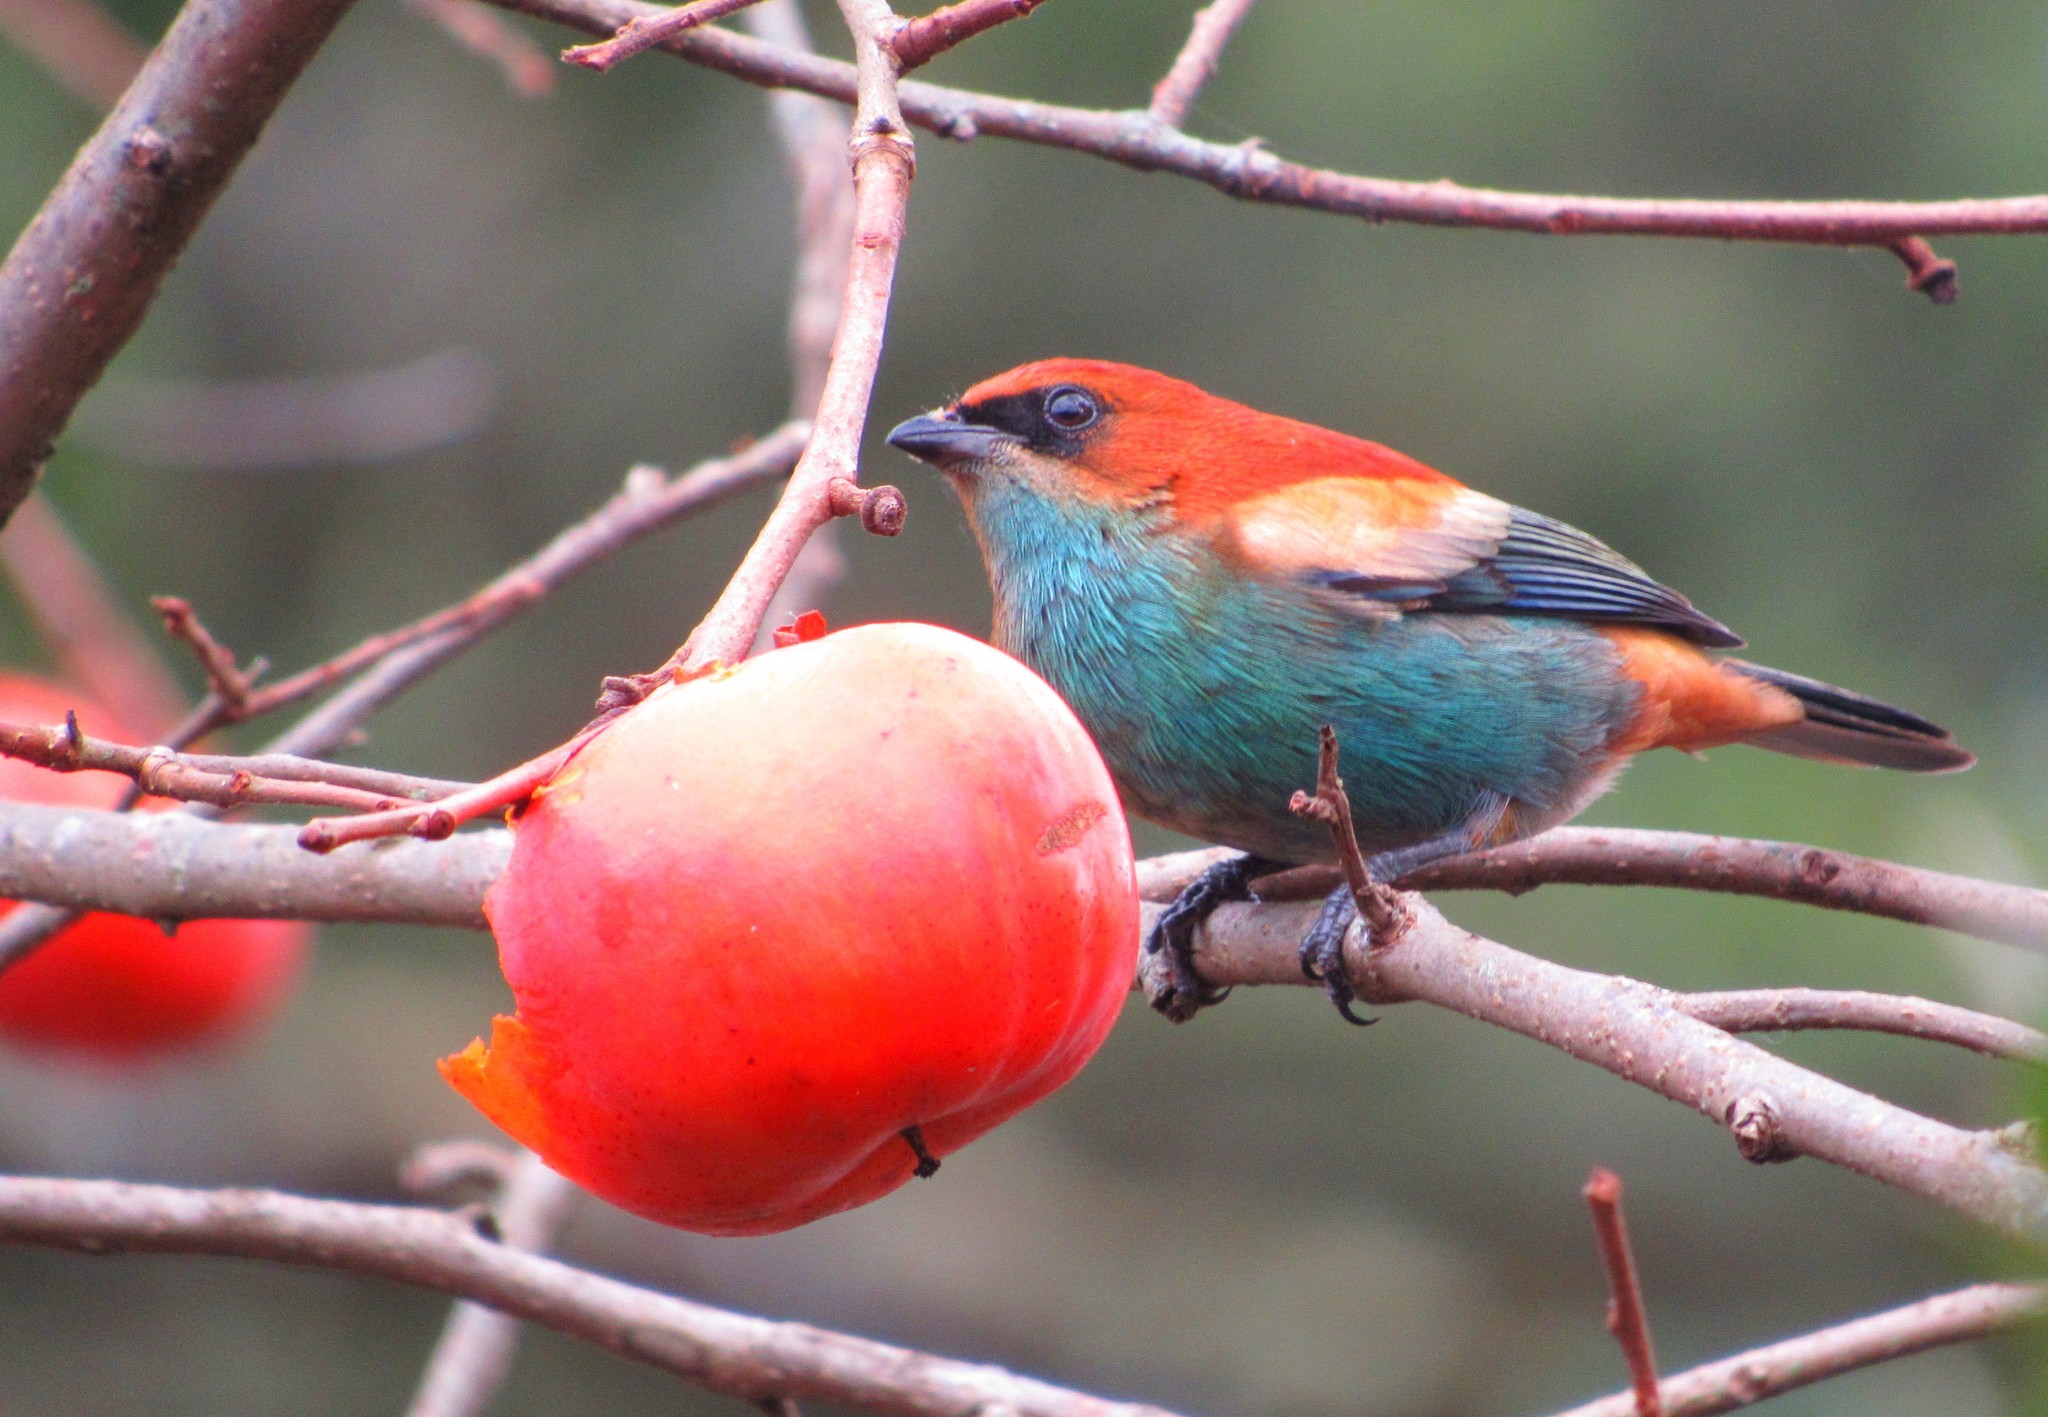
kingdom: Animalia
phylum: Chordata
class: Aves
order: Passeriformes
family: Thraupidae
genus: Stilpnia
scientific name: Stilpnia preciosa
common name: Chestnut-backed tanager
